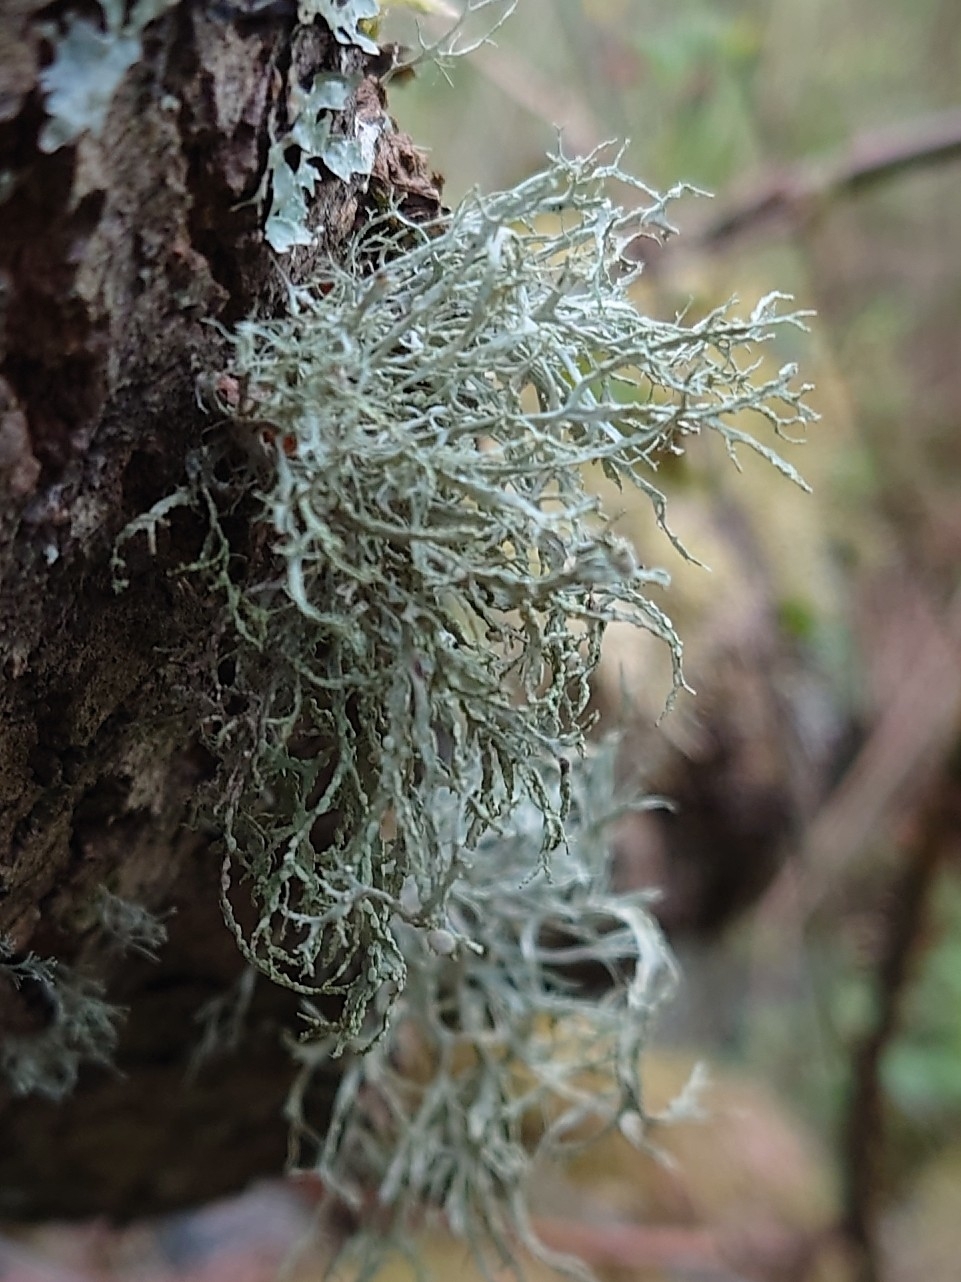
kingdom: Fungi
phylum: Ascomycota
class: Lecanoromycetes
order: Lecanorales
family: Ramalinaceae
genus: Ramalina
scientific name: Ramalina farinacea
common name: Farinose cartilage lichen
